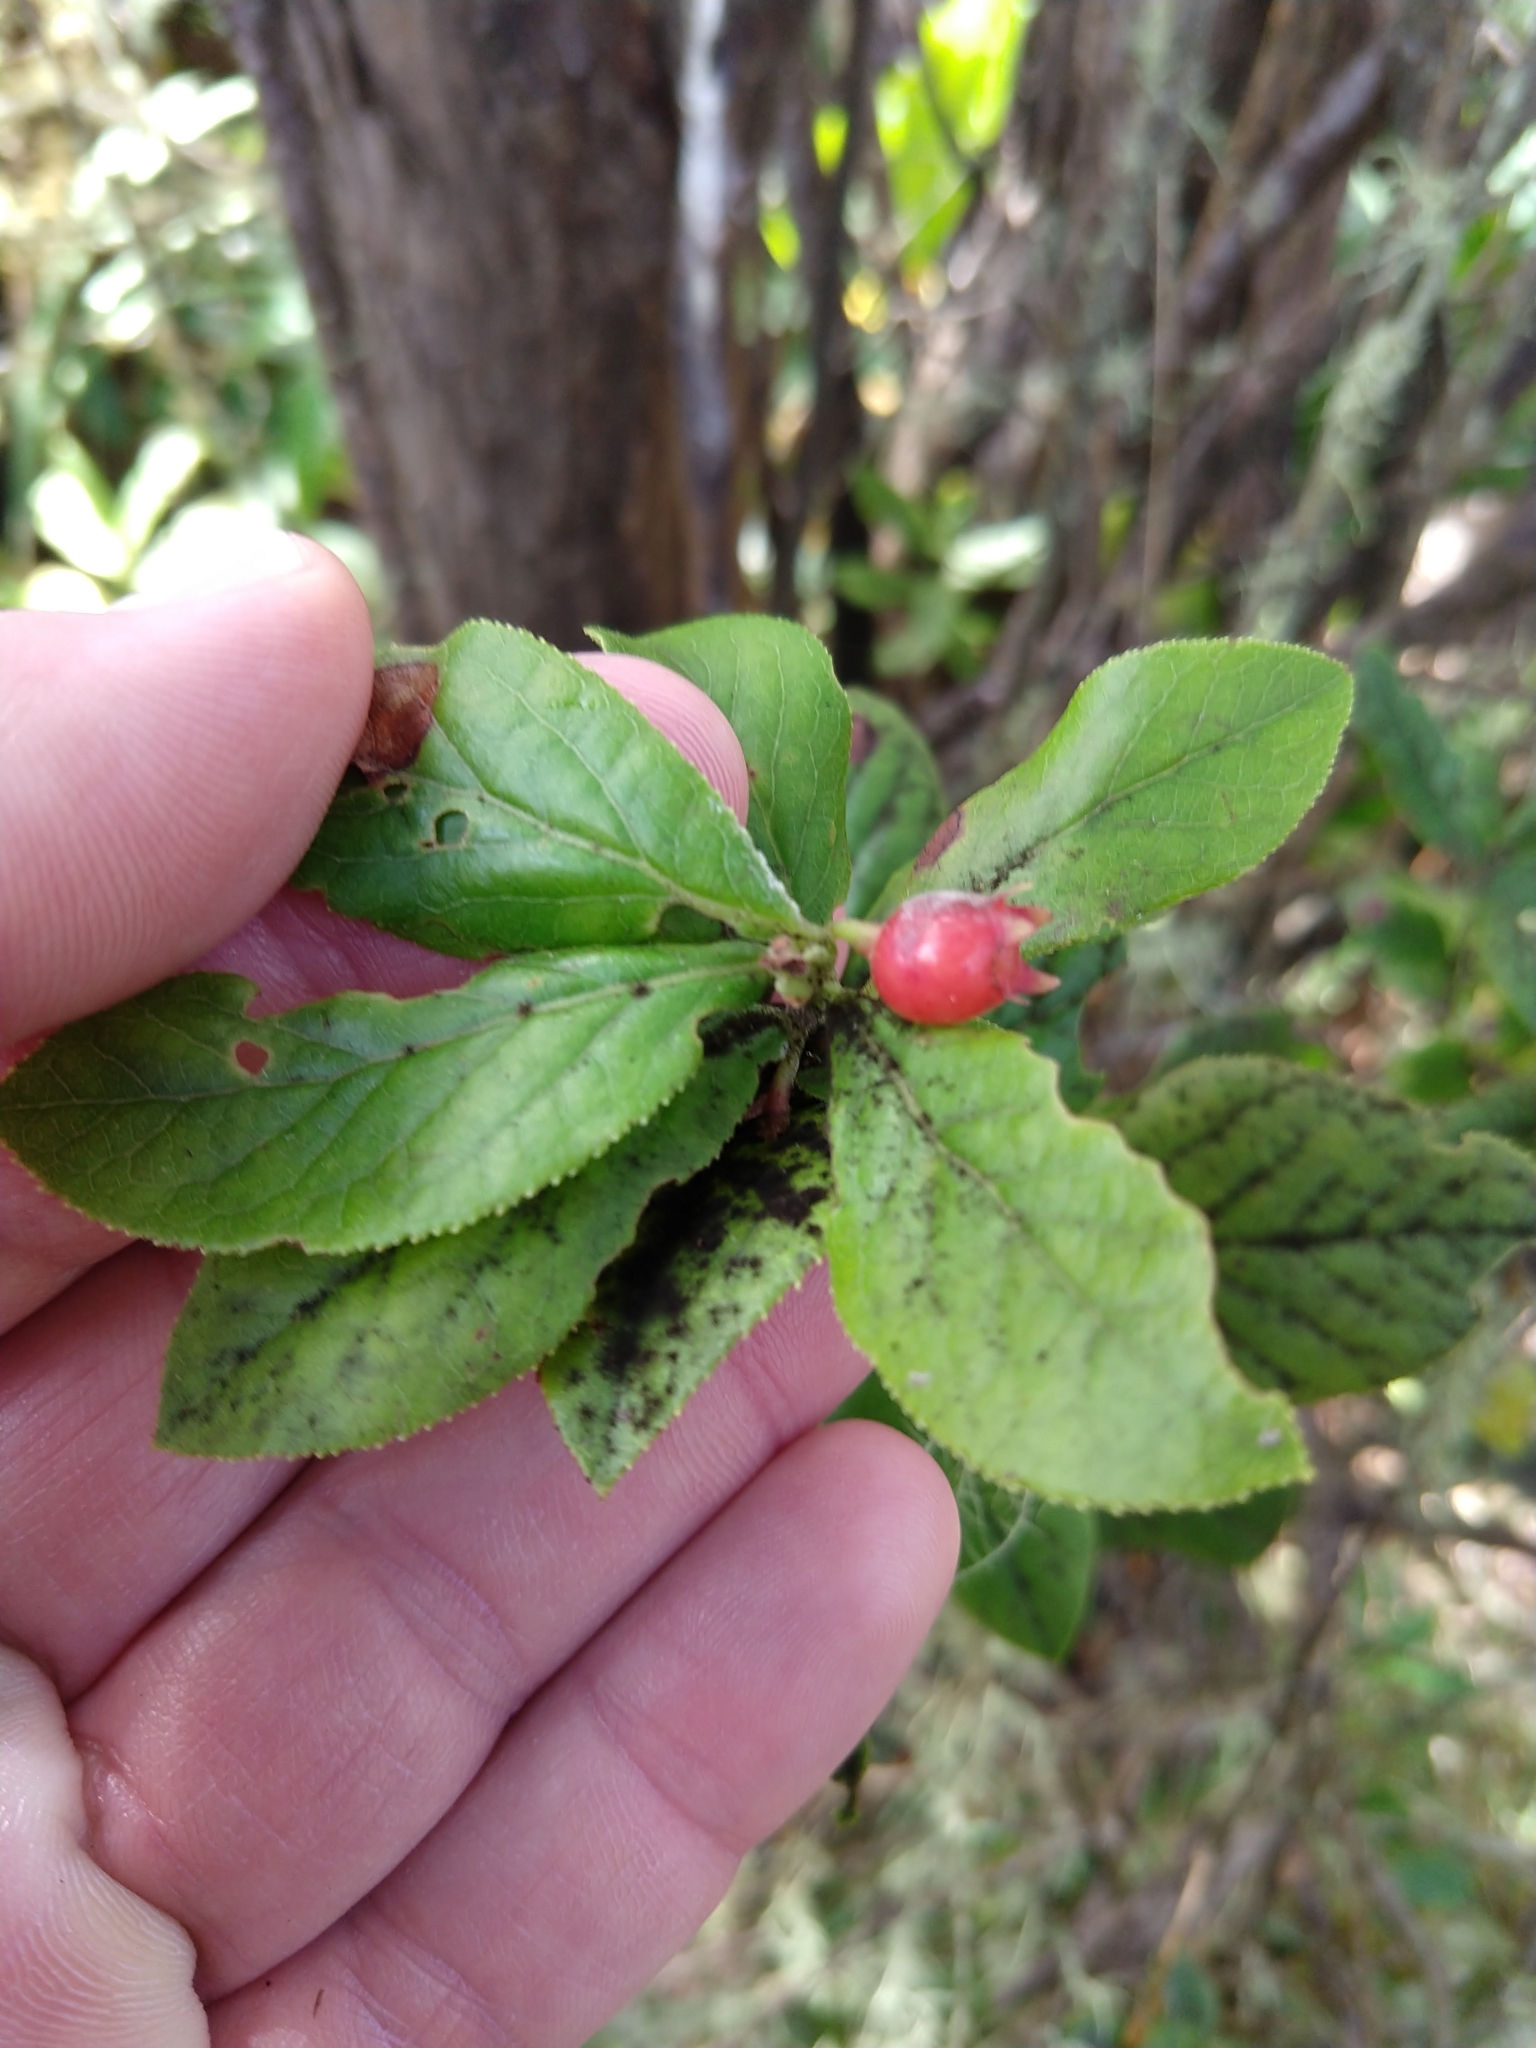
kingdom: Plantae
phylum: Tracheophyta
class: Magnoliopsida
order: Ericales
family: Ericaceae
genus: Vaccinium
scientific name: Vaccinium calycinum
